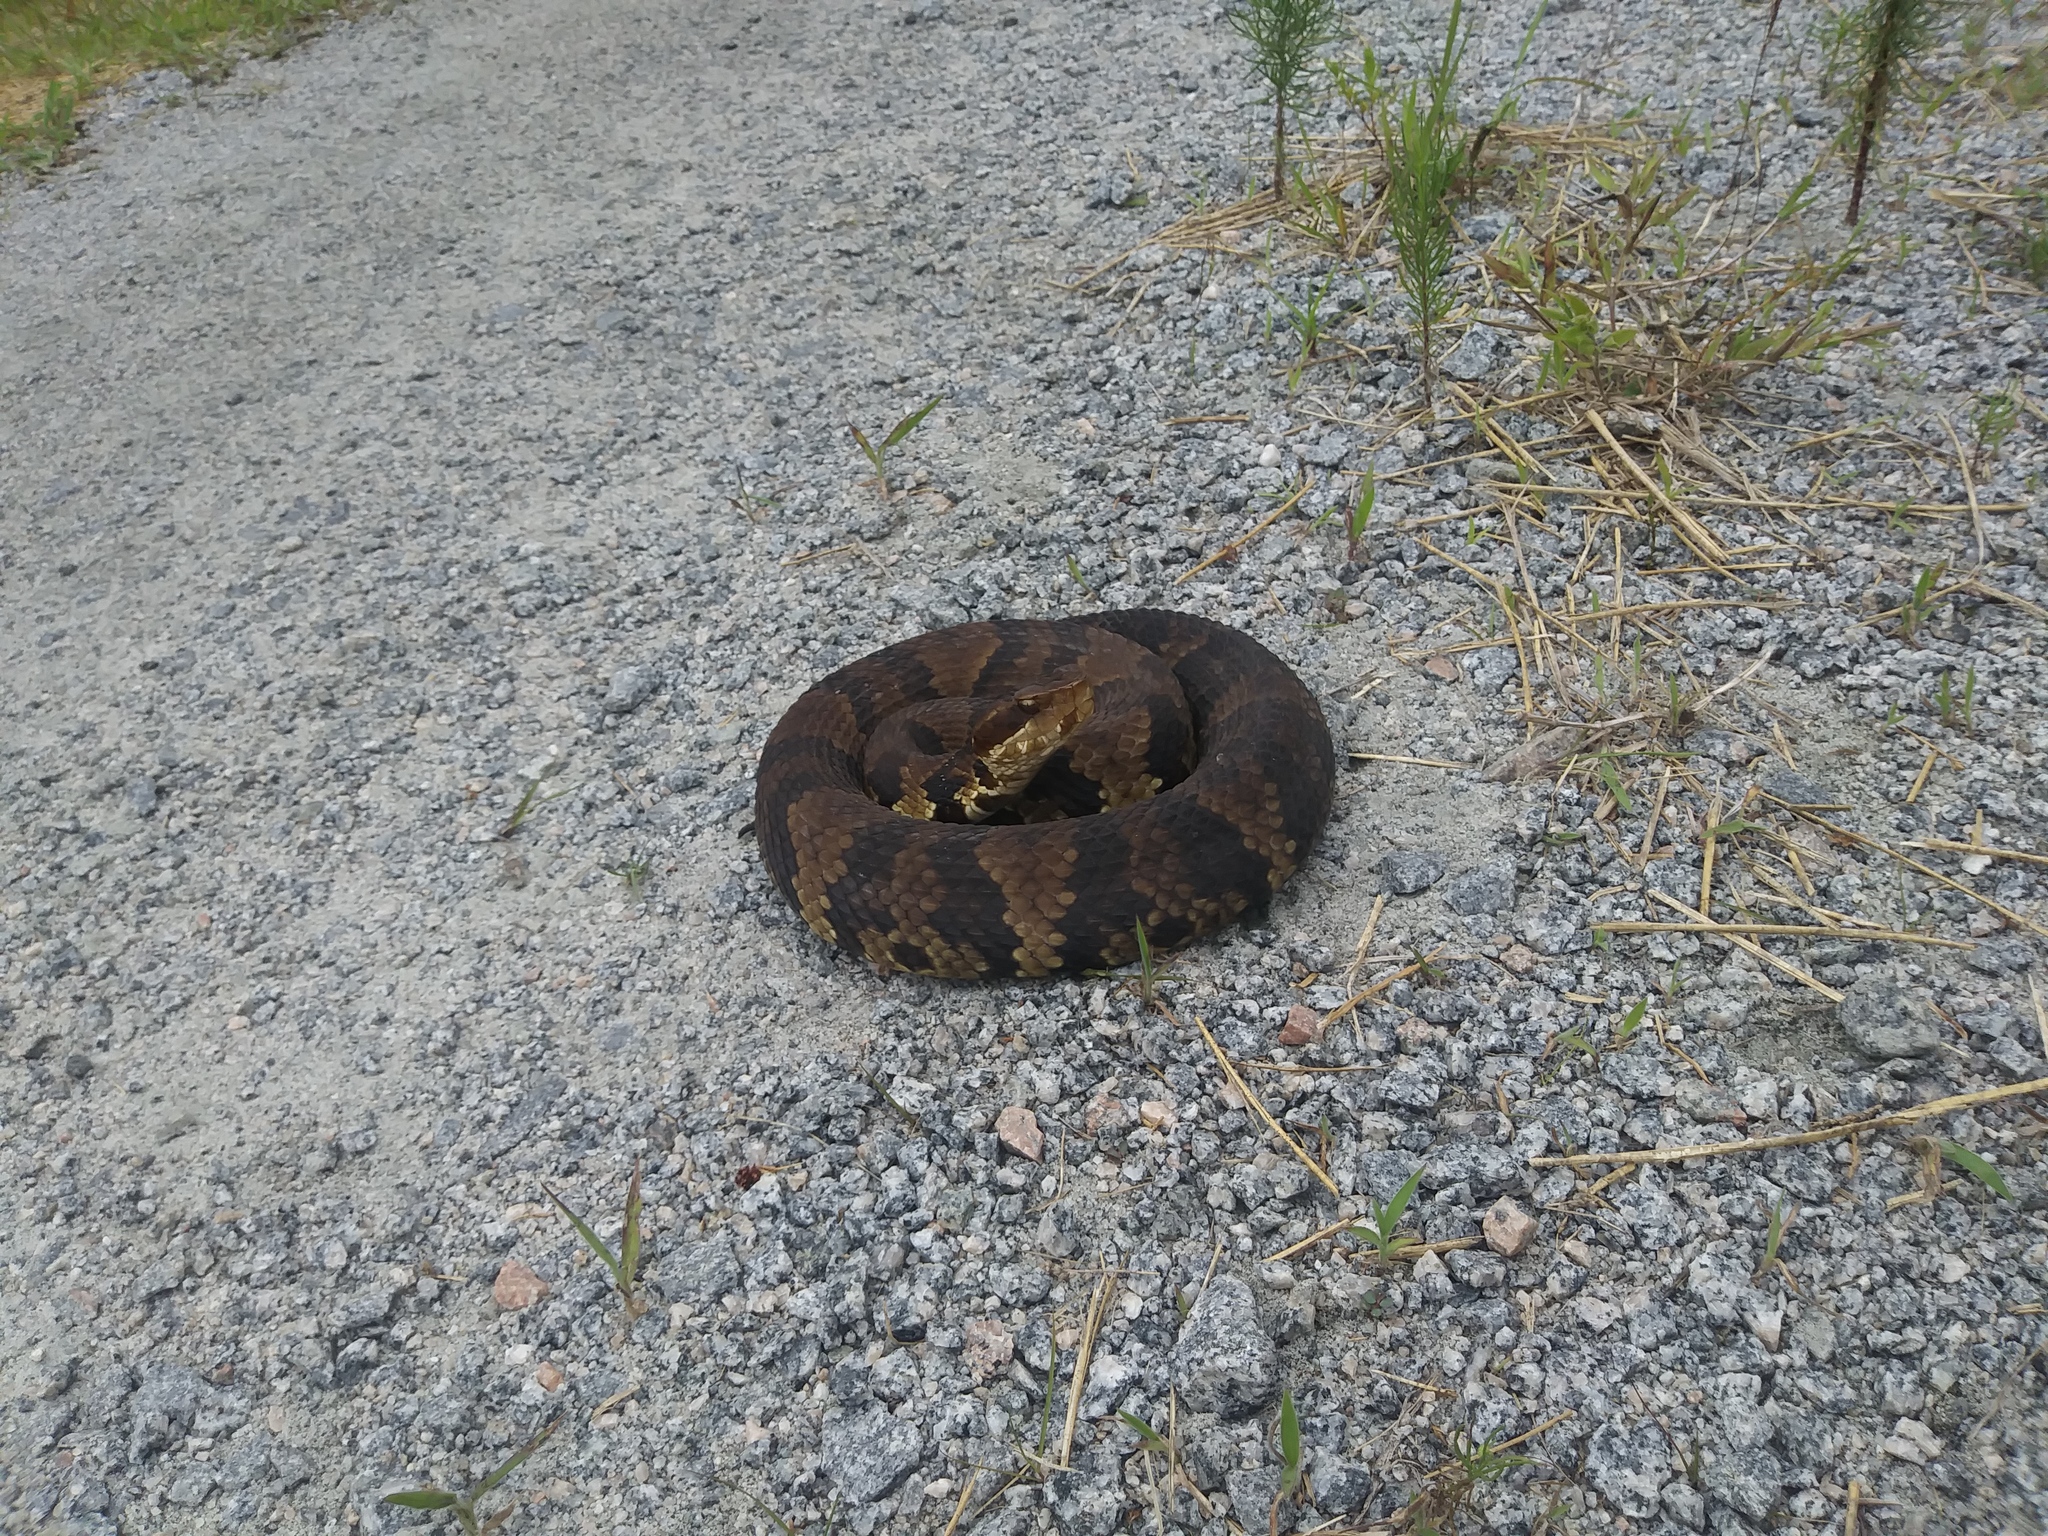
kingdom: Animalia
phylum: Chordata
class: Squamata
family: Viperidae
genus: Agkistrodon
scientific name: Agkistrodon piscivorus
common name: Cottonmouth
